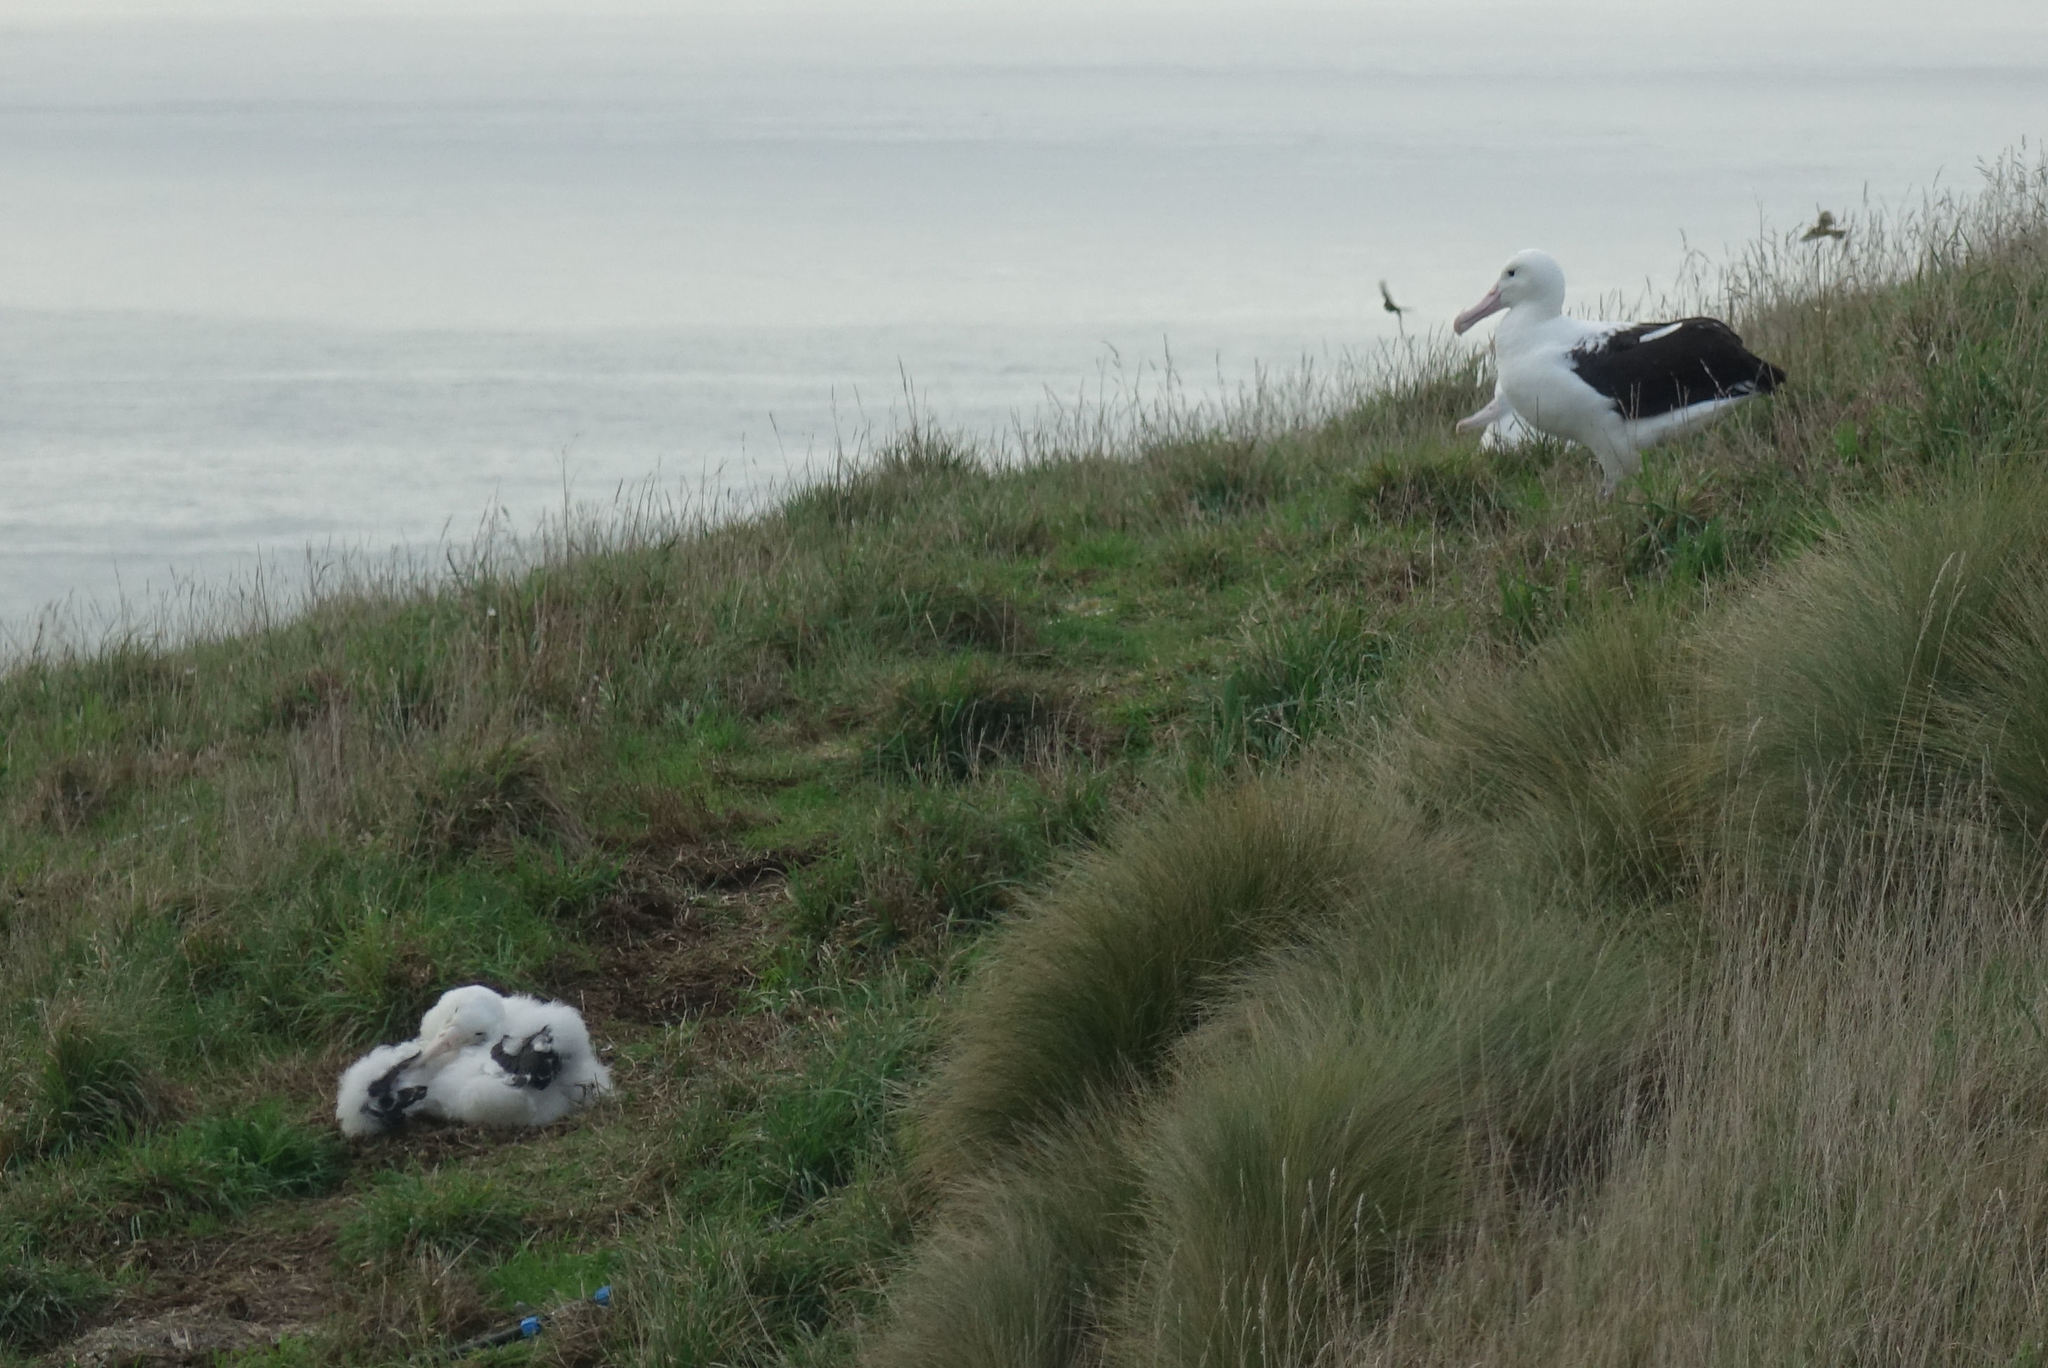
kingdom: Animalia
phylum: Chordata
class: Aves
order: Procellariiformes
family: Diomedeidae
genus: Diomedea
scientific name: Diomedea sanfordi
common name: Northern royal albatross
